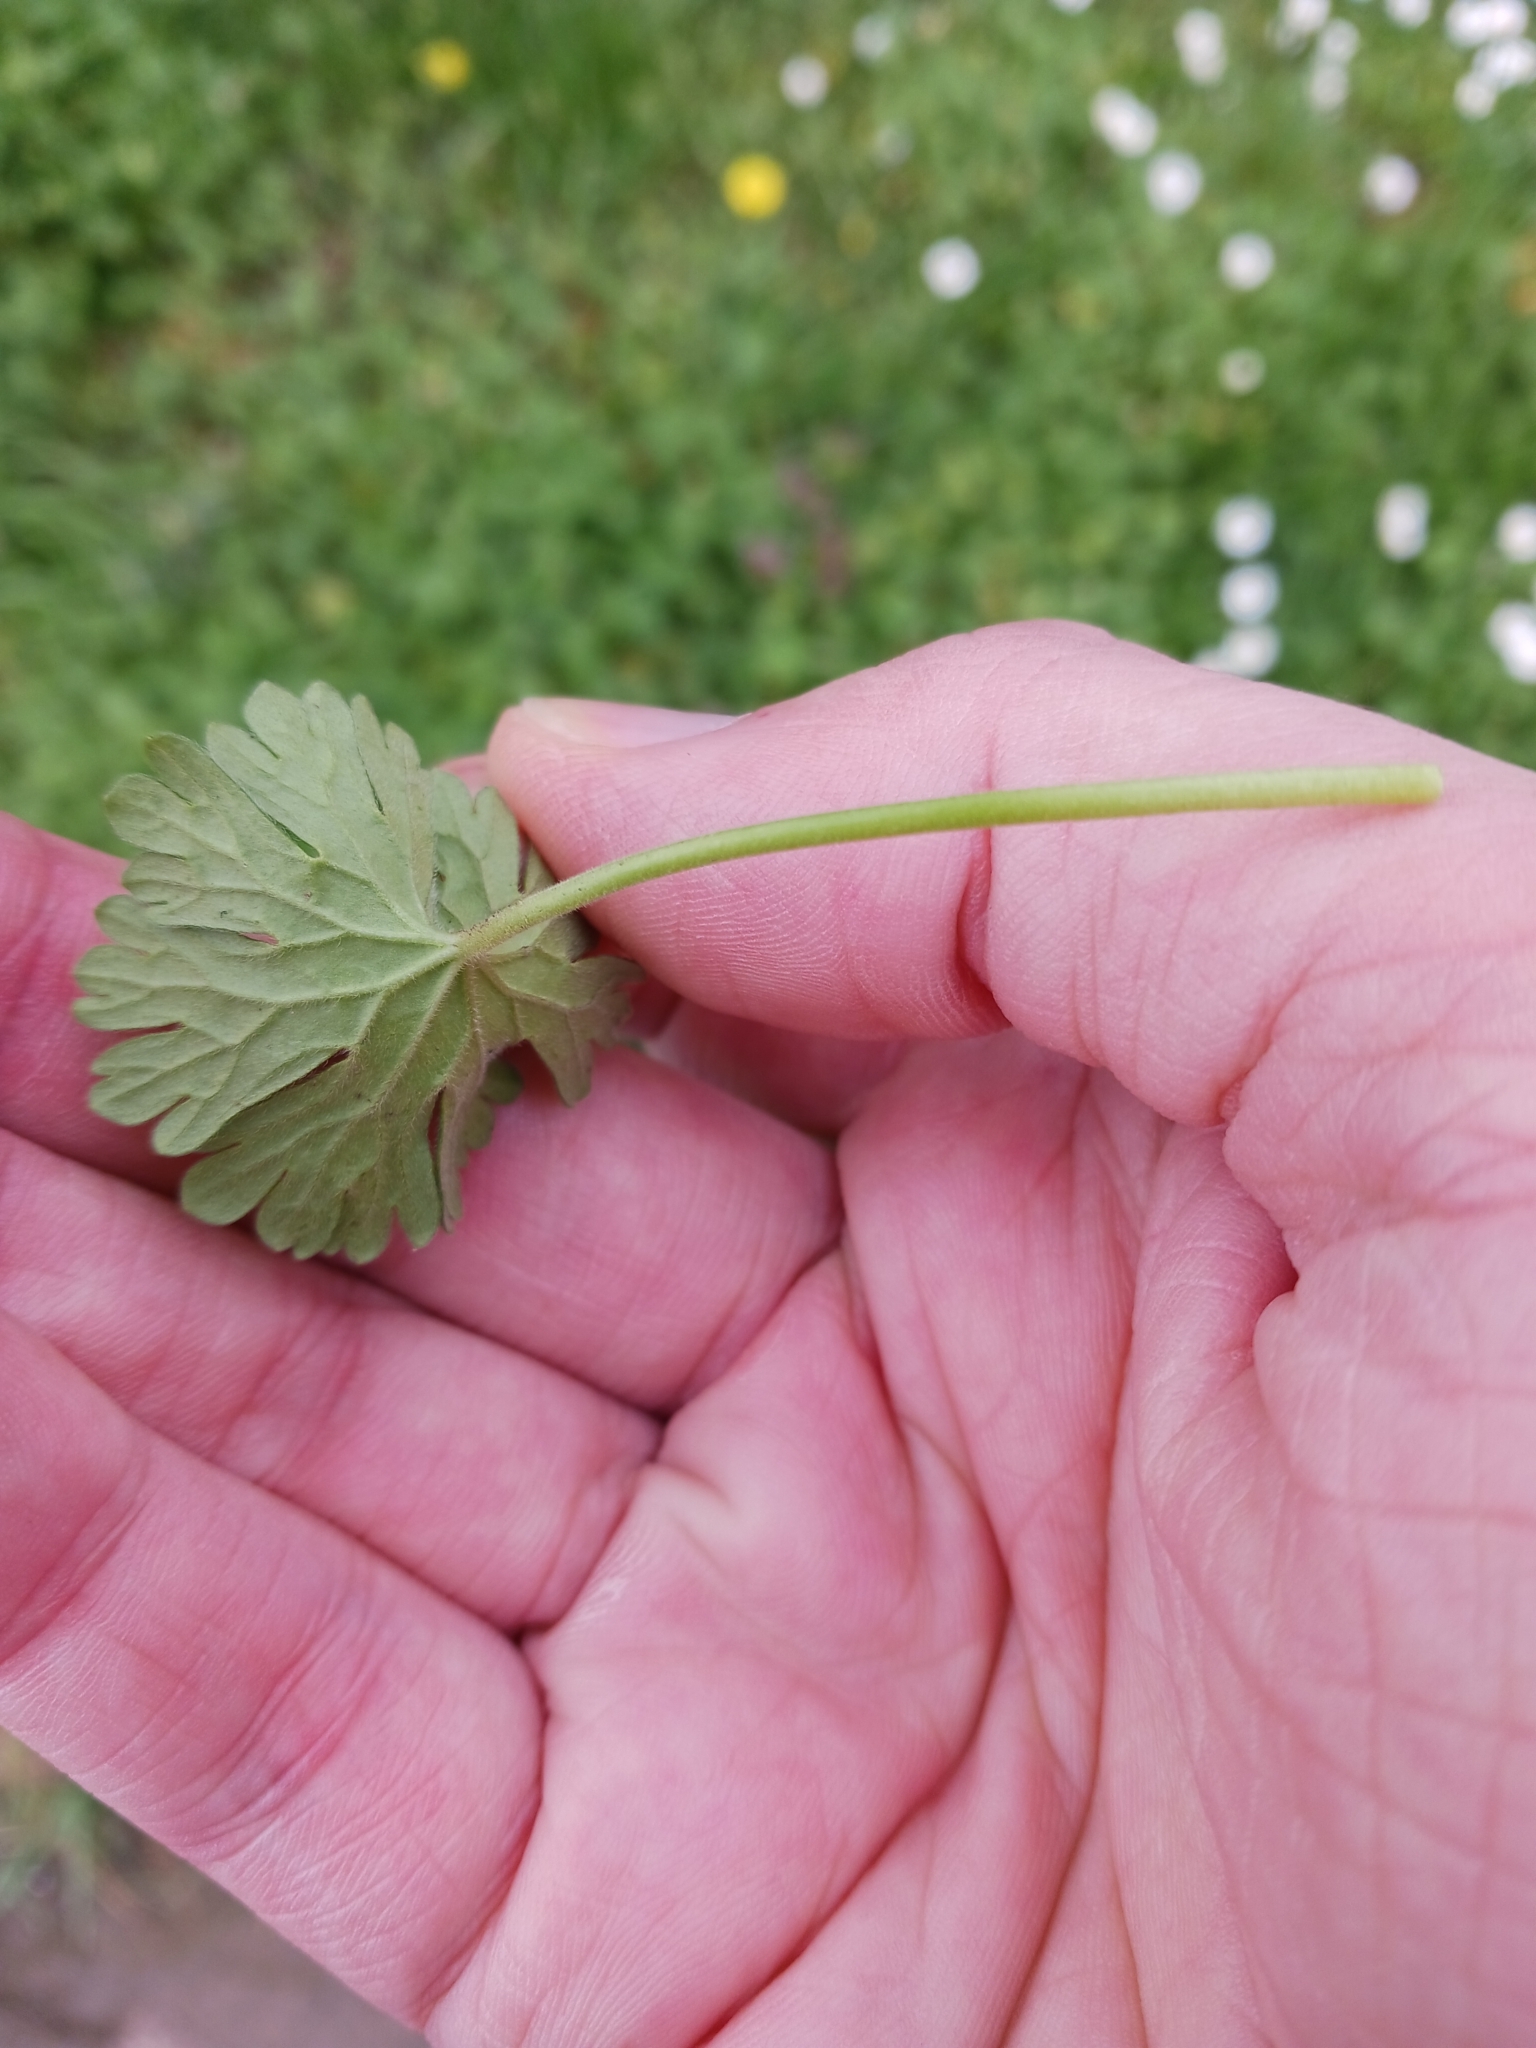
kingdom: Plantae
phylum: Tracheophyta
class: Magnoliopsida
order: Geraniales
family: Geraniaceae
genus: Geranium
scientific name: Geranium pusillum
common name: Small geranium
